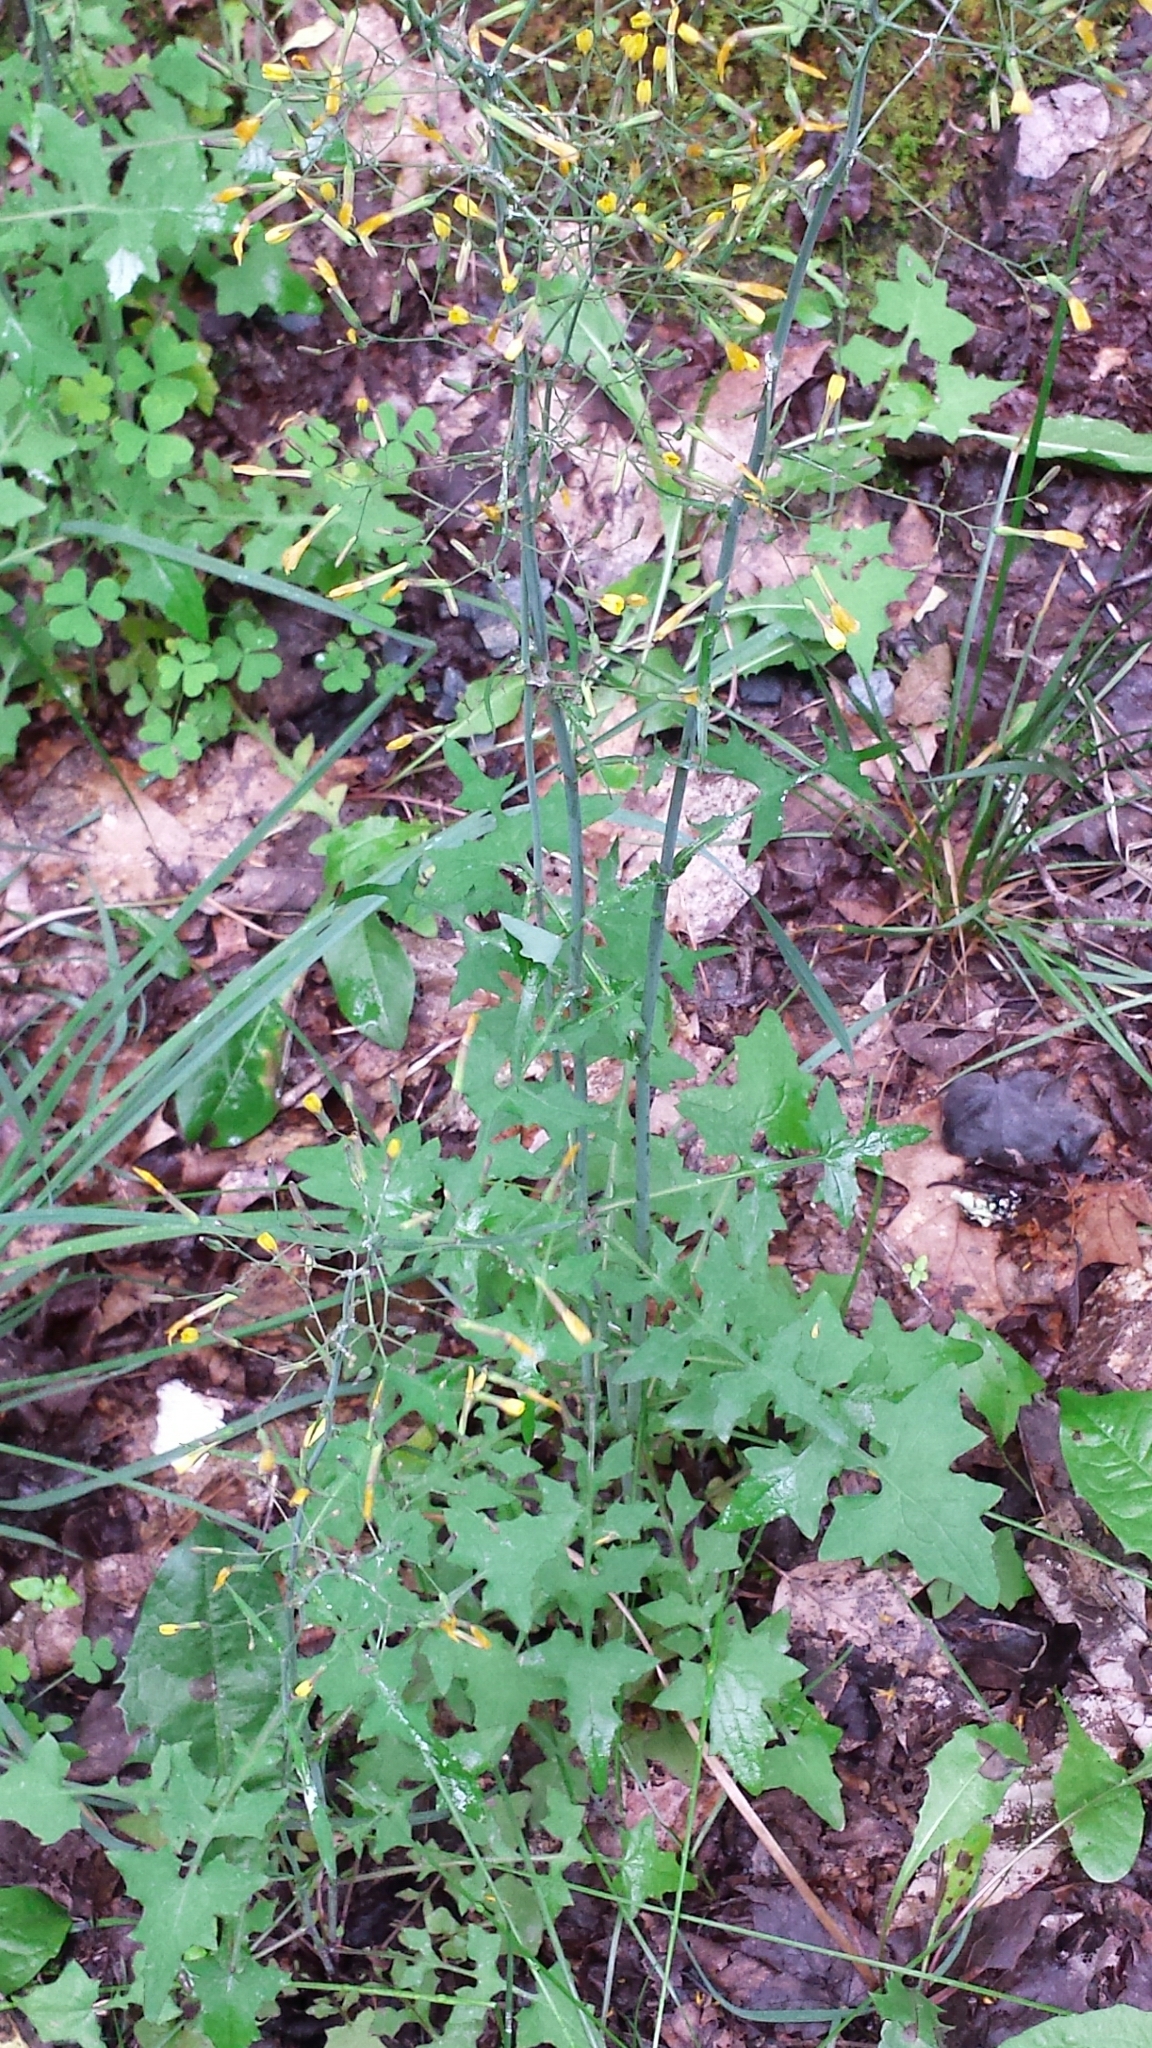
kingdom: Plantae
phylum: Tracheophyta
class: Magnoliopsida
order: Asterales
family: Asteraceae
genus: Mycelis
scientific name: Mycelis muralis
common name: Wall lettuce
